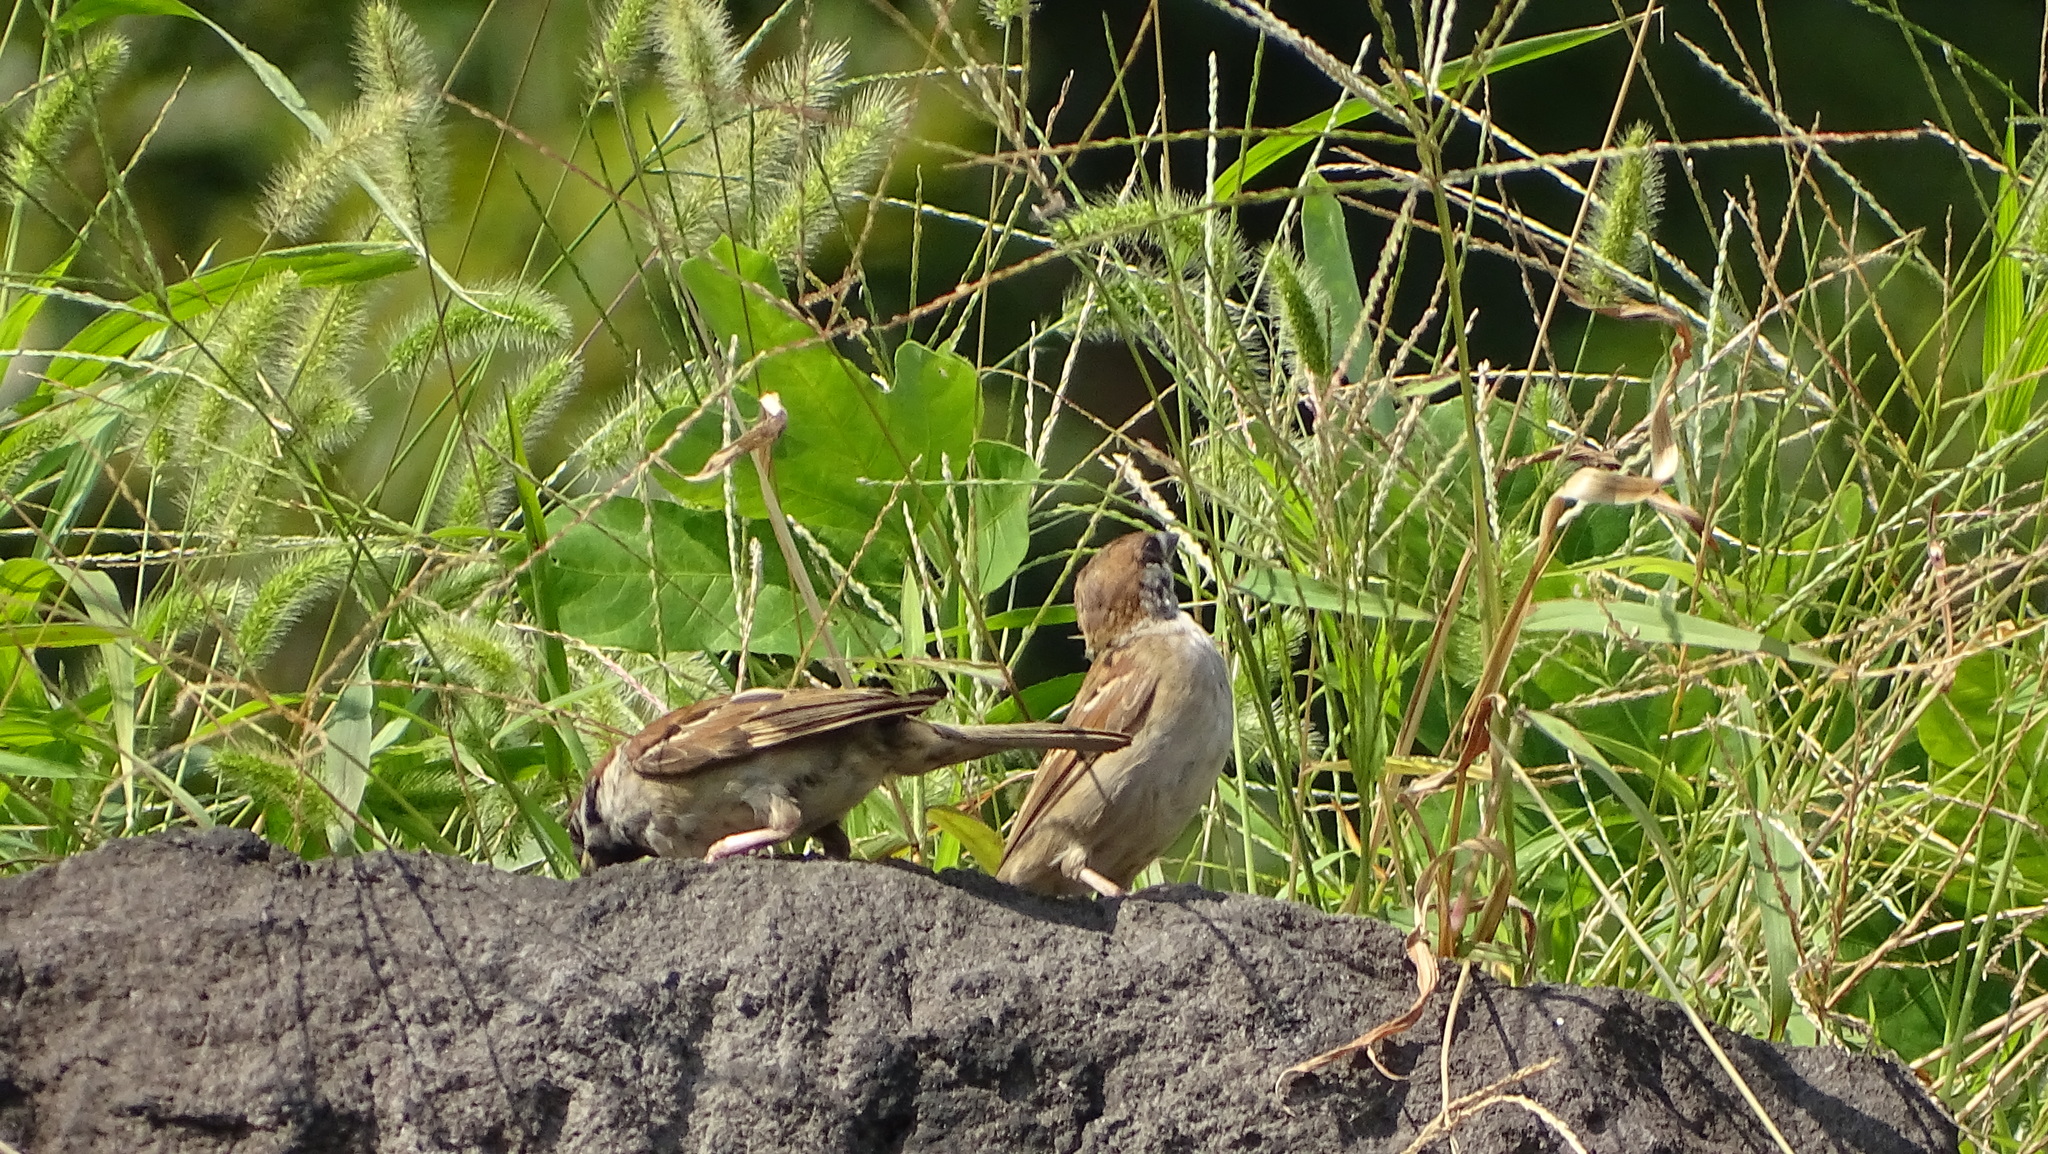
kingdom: Animalia
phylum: Chordata
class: Aves
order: Passeriformes
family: Passeridae
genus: Passer
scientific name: Passer montanus
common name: Eurasian tree sparrow
